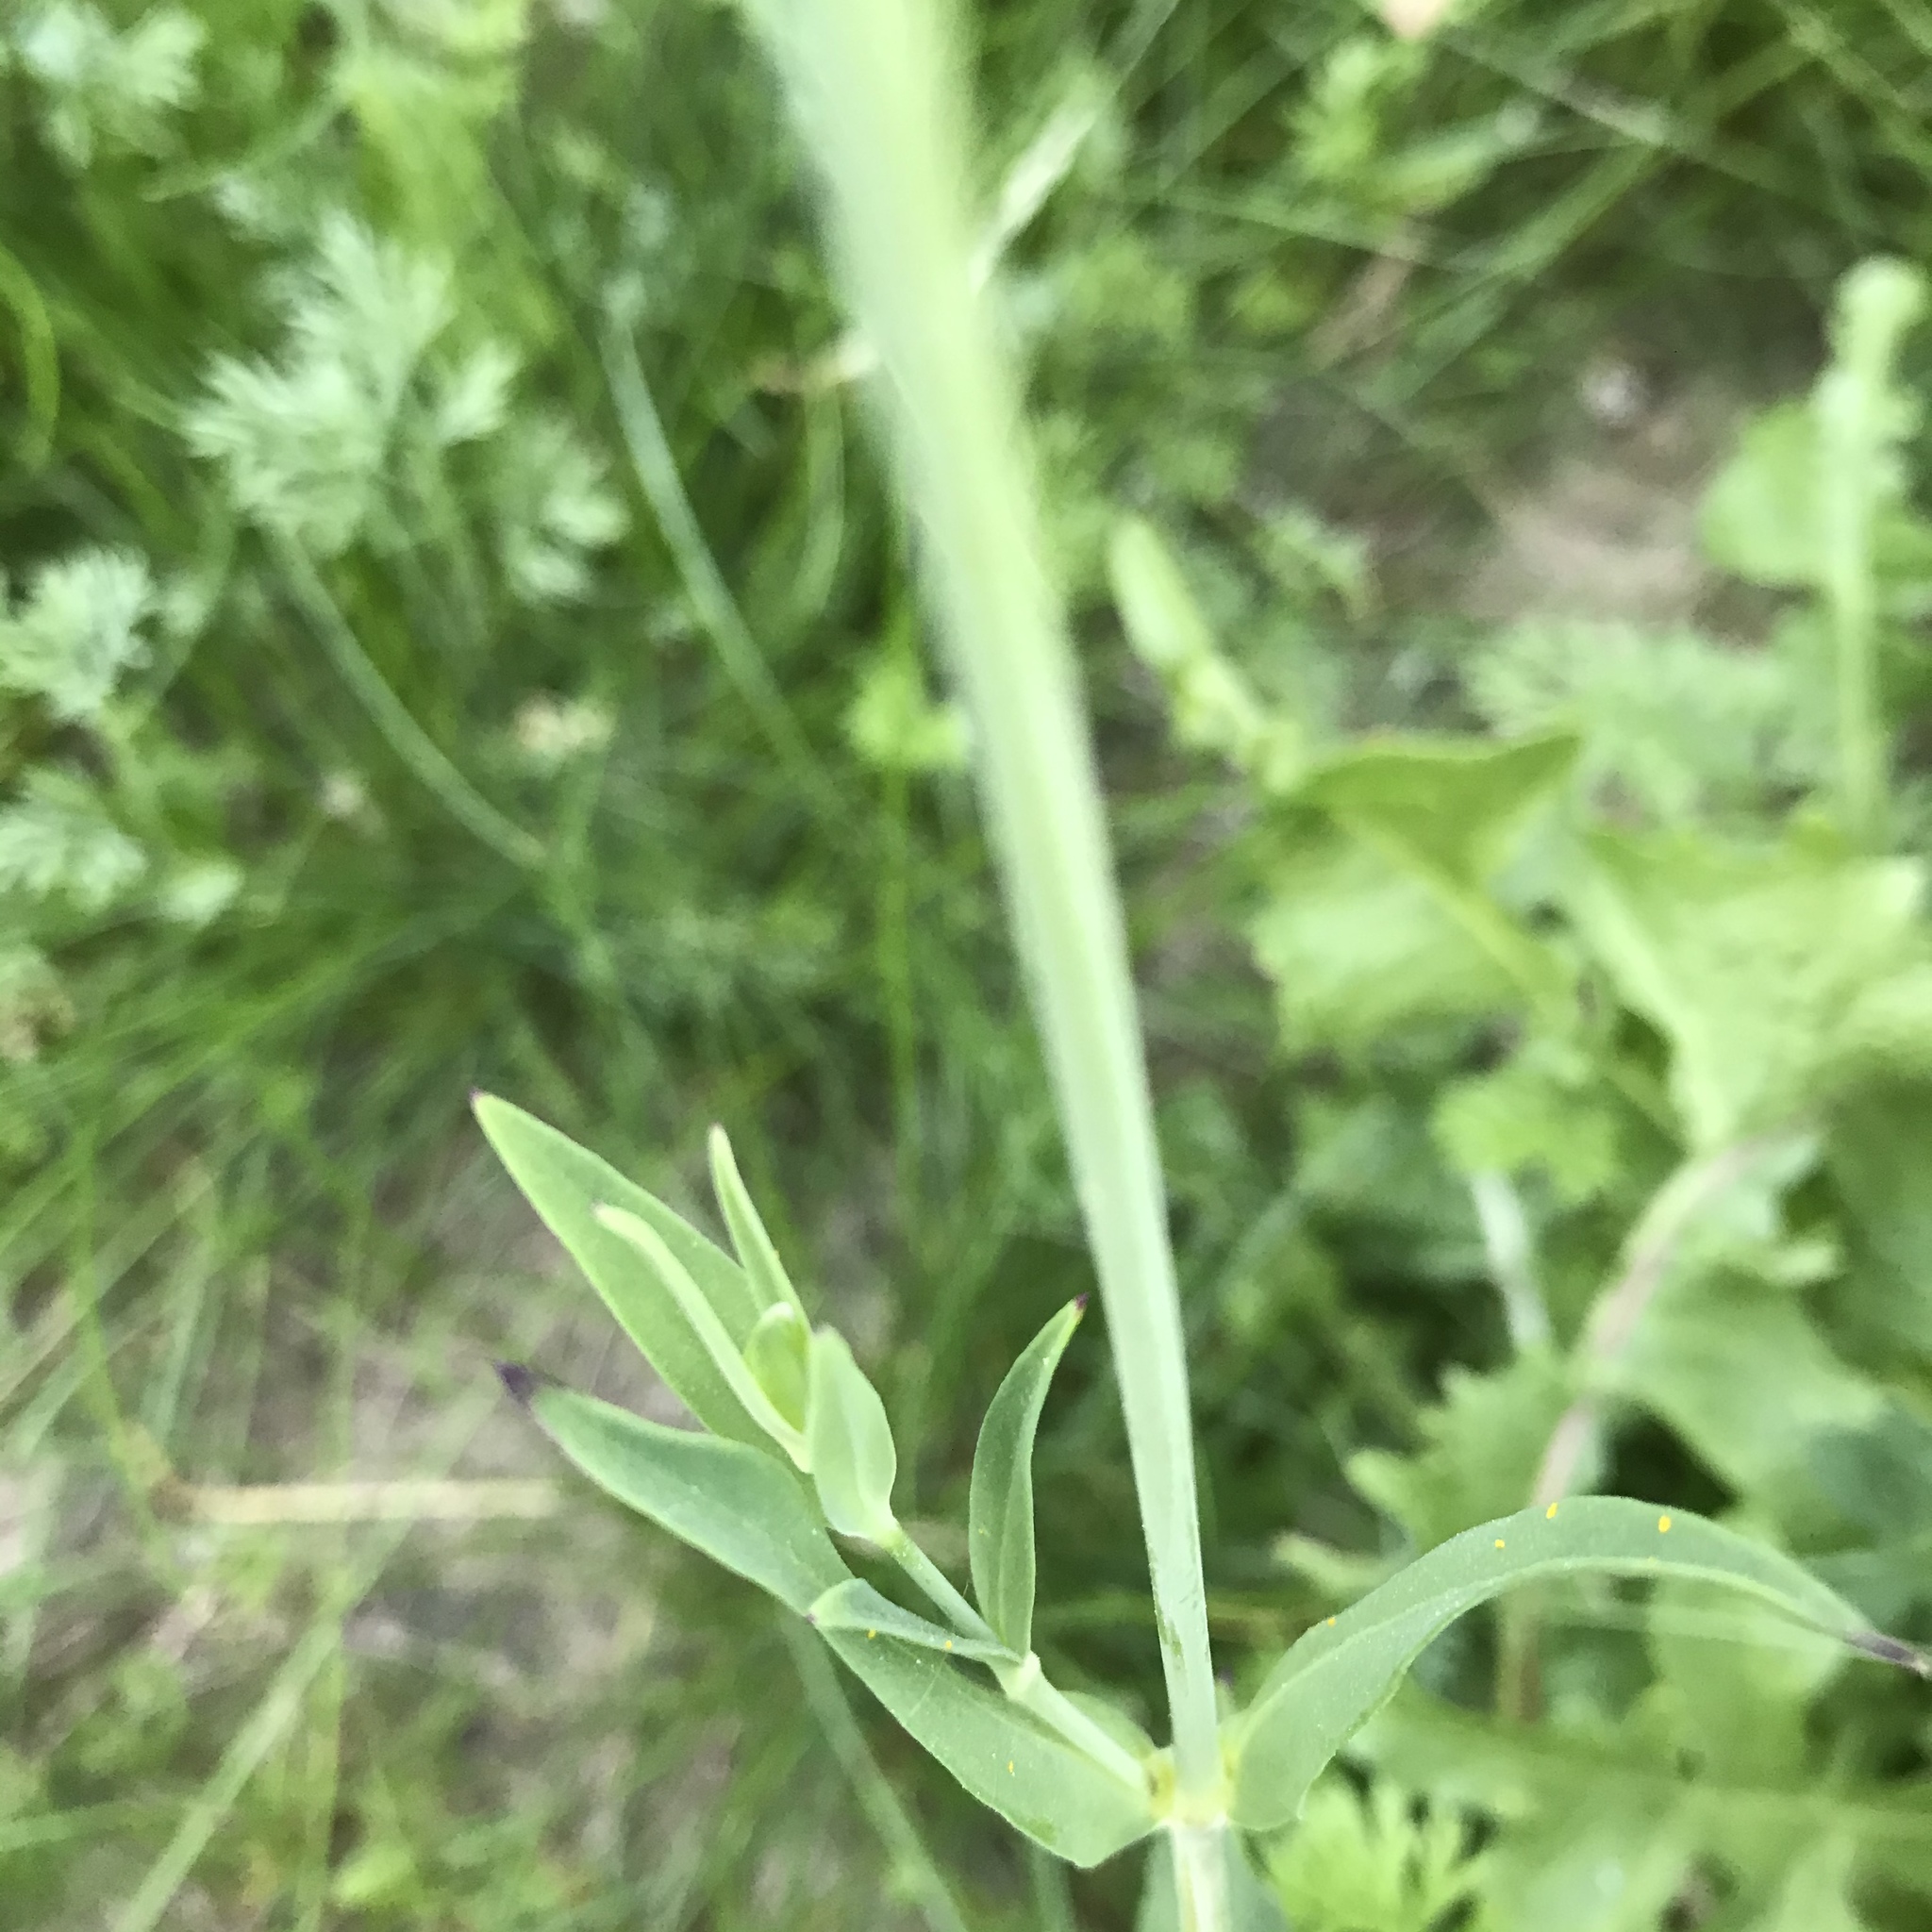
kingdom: Plantae
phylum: Tracheophyta
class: Magnoliopsida
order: Caryophyllales
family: Caryophyllaceae
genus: Silene
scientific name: Silene vulgaris
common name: Bladder campion
